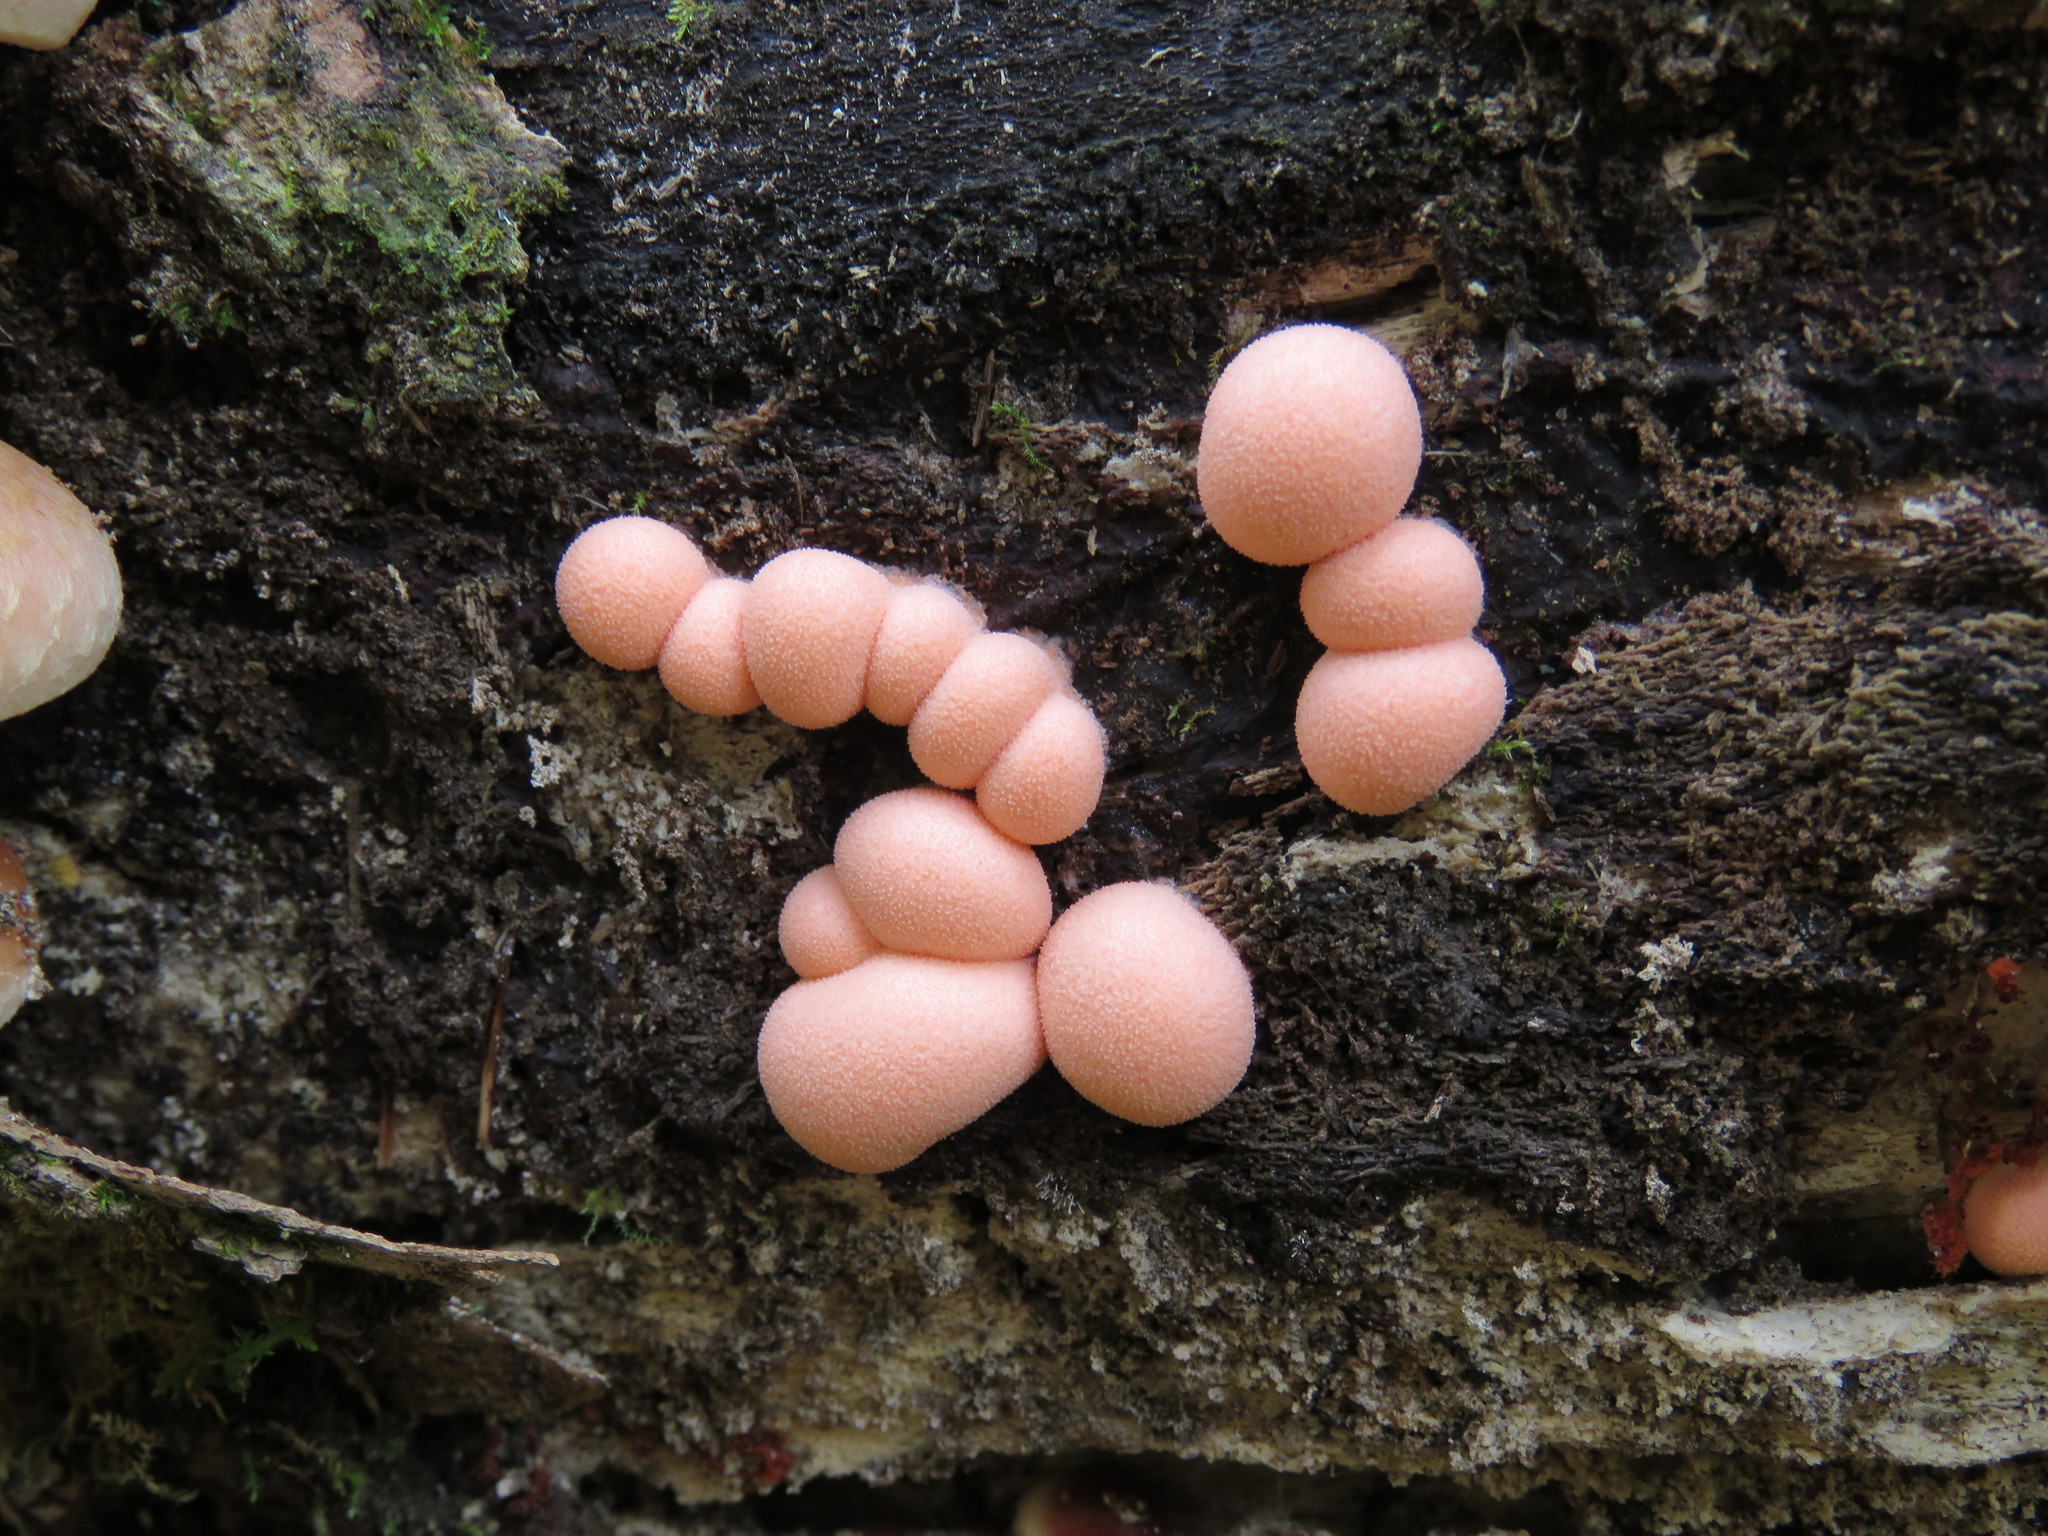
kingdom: Protozoa
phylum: Mycetozoa
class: Myxomycetes
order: Cribrariales
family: Tubiferaceae
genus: Lycogala
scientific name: Lycogala epidendrum
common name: Wolf's milk
